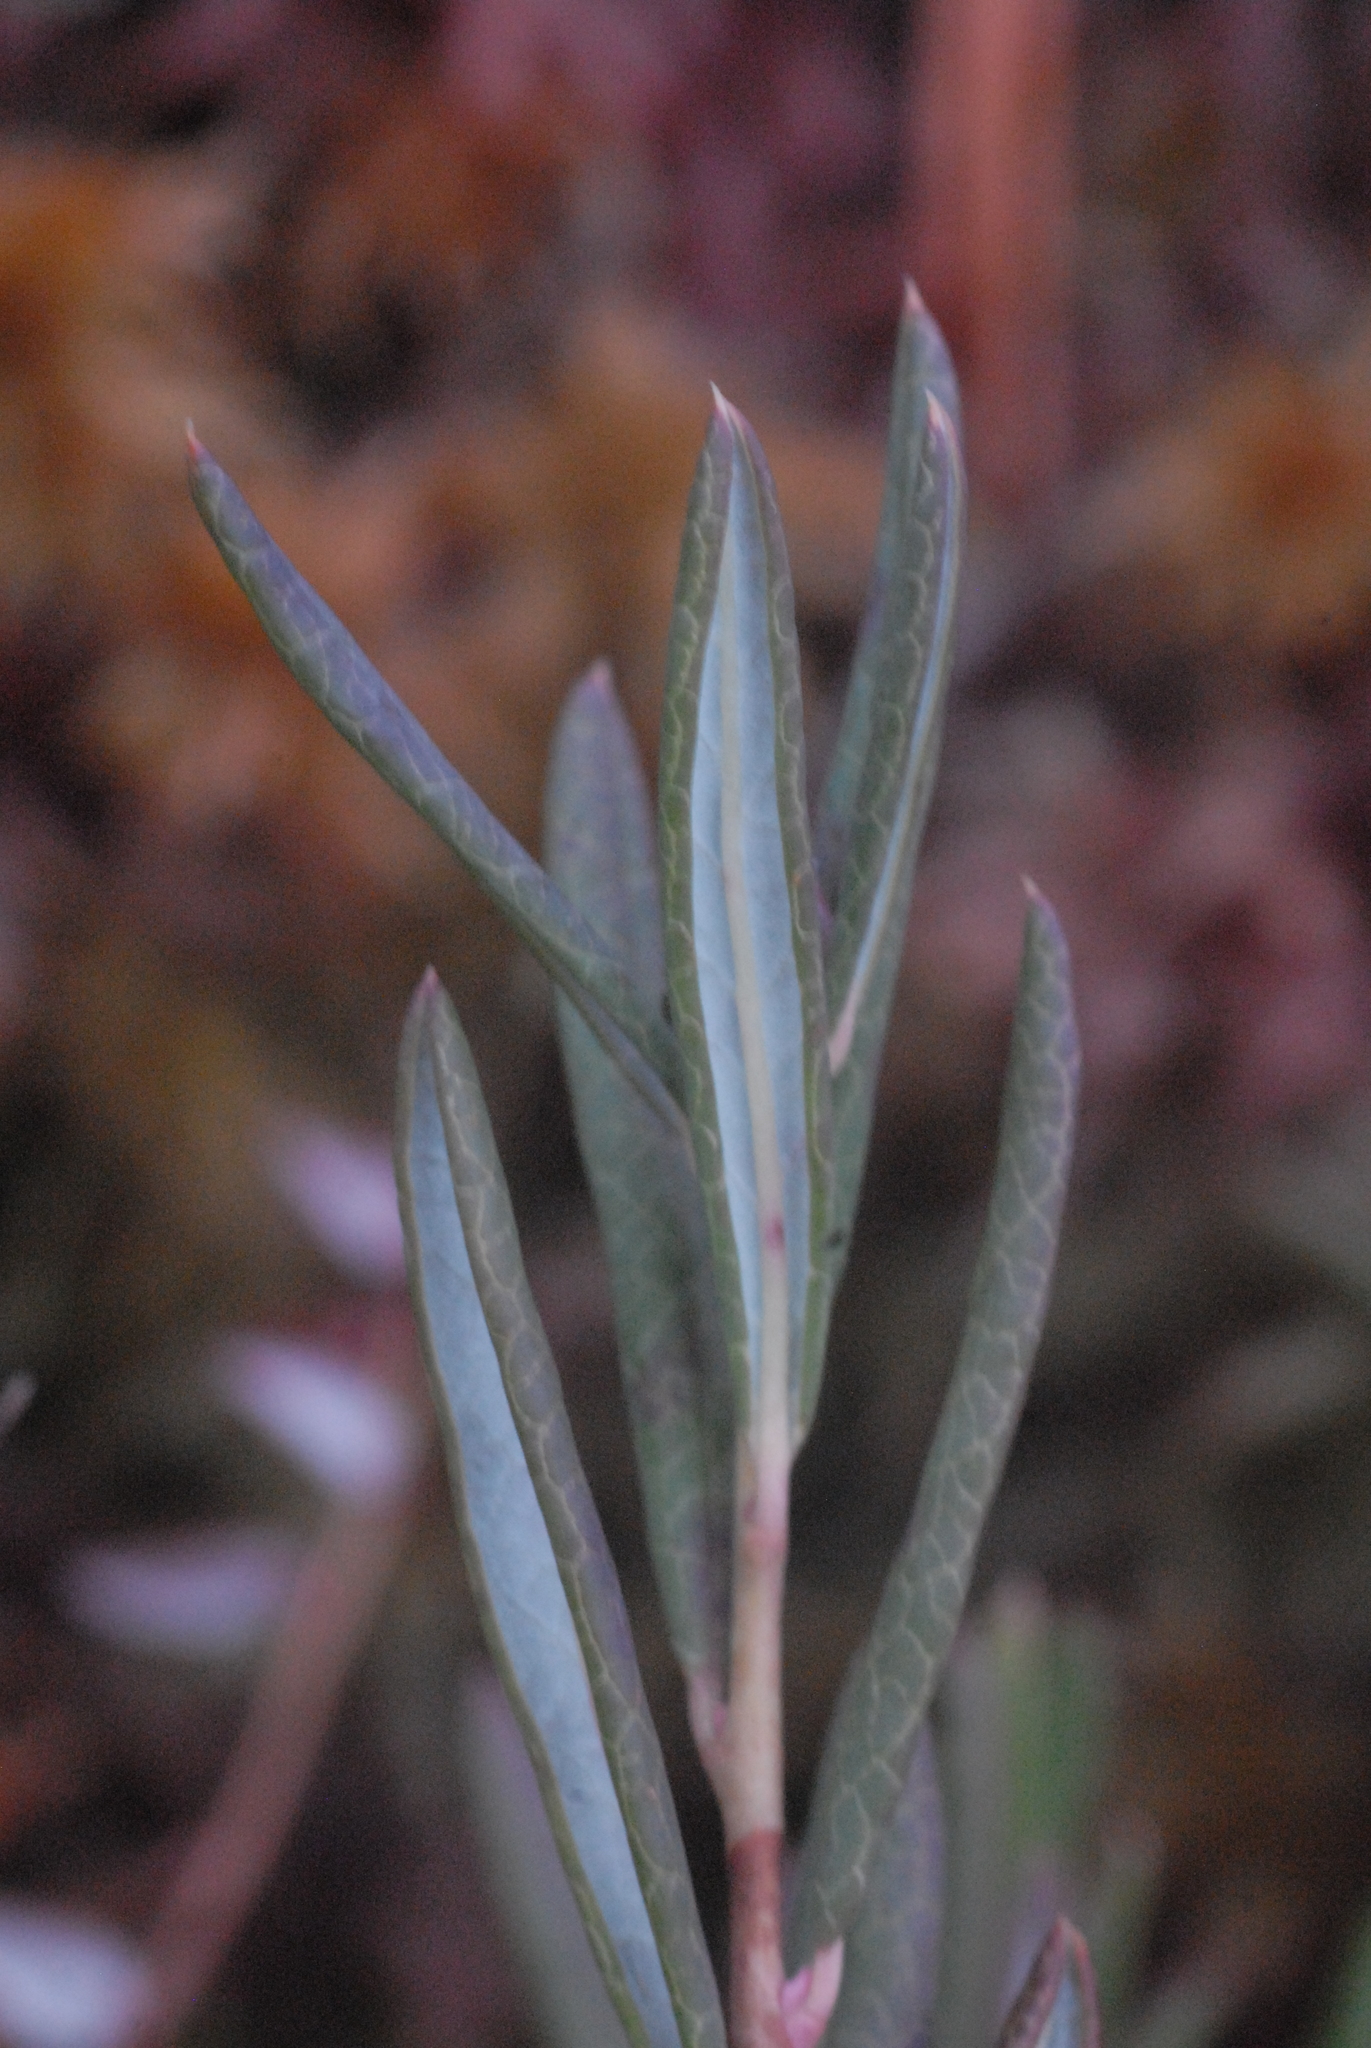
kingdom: Plantae
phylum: Tracheophyta
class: Magnoliopsida
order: Ericales
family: Ericaceae
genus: Andromeda
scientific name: Andromeda polifolia
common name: Bog-rosemary
